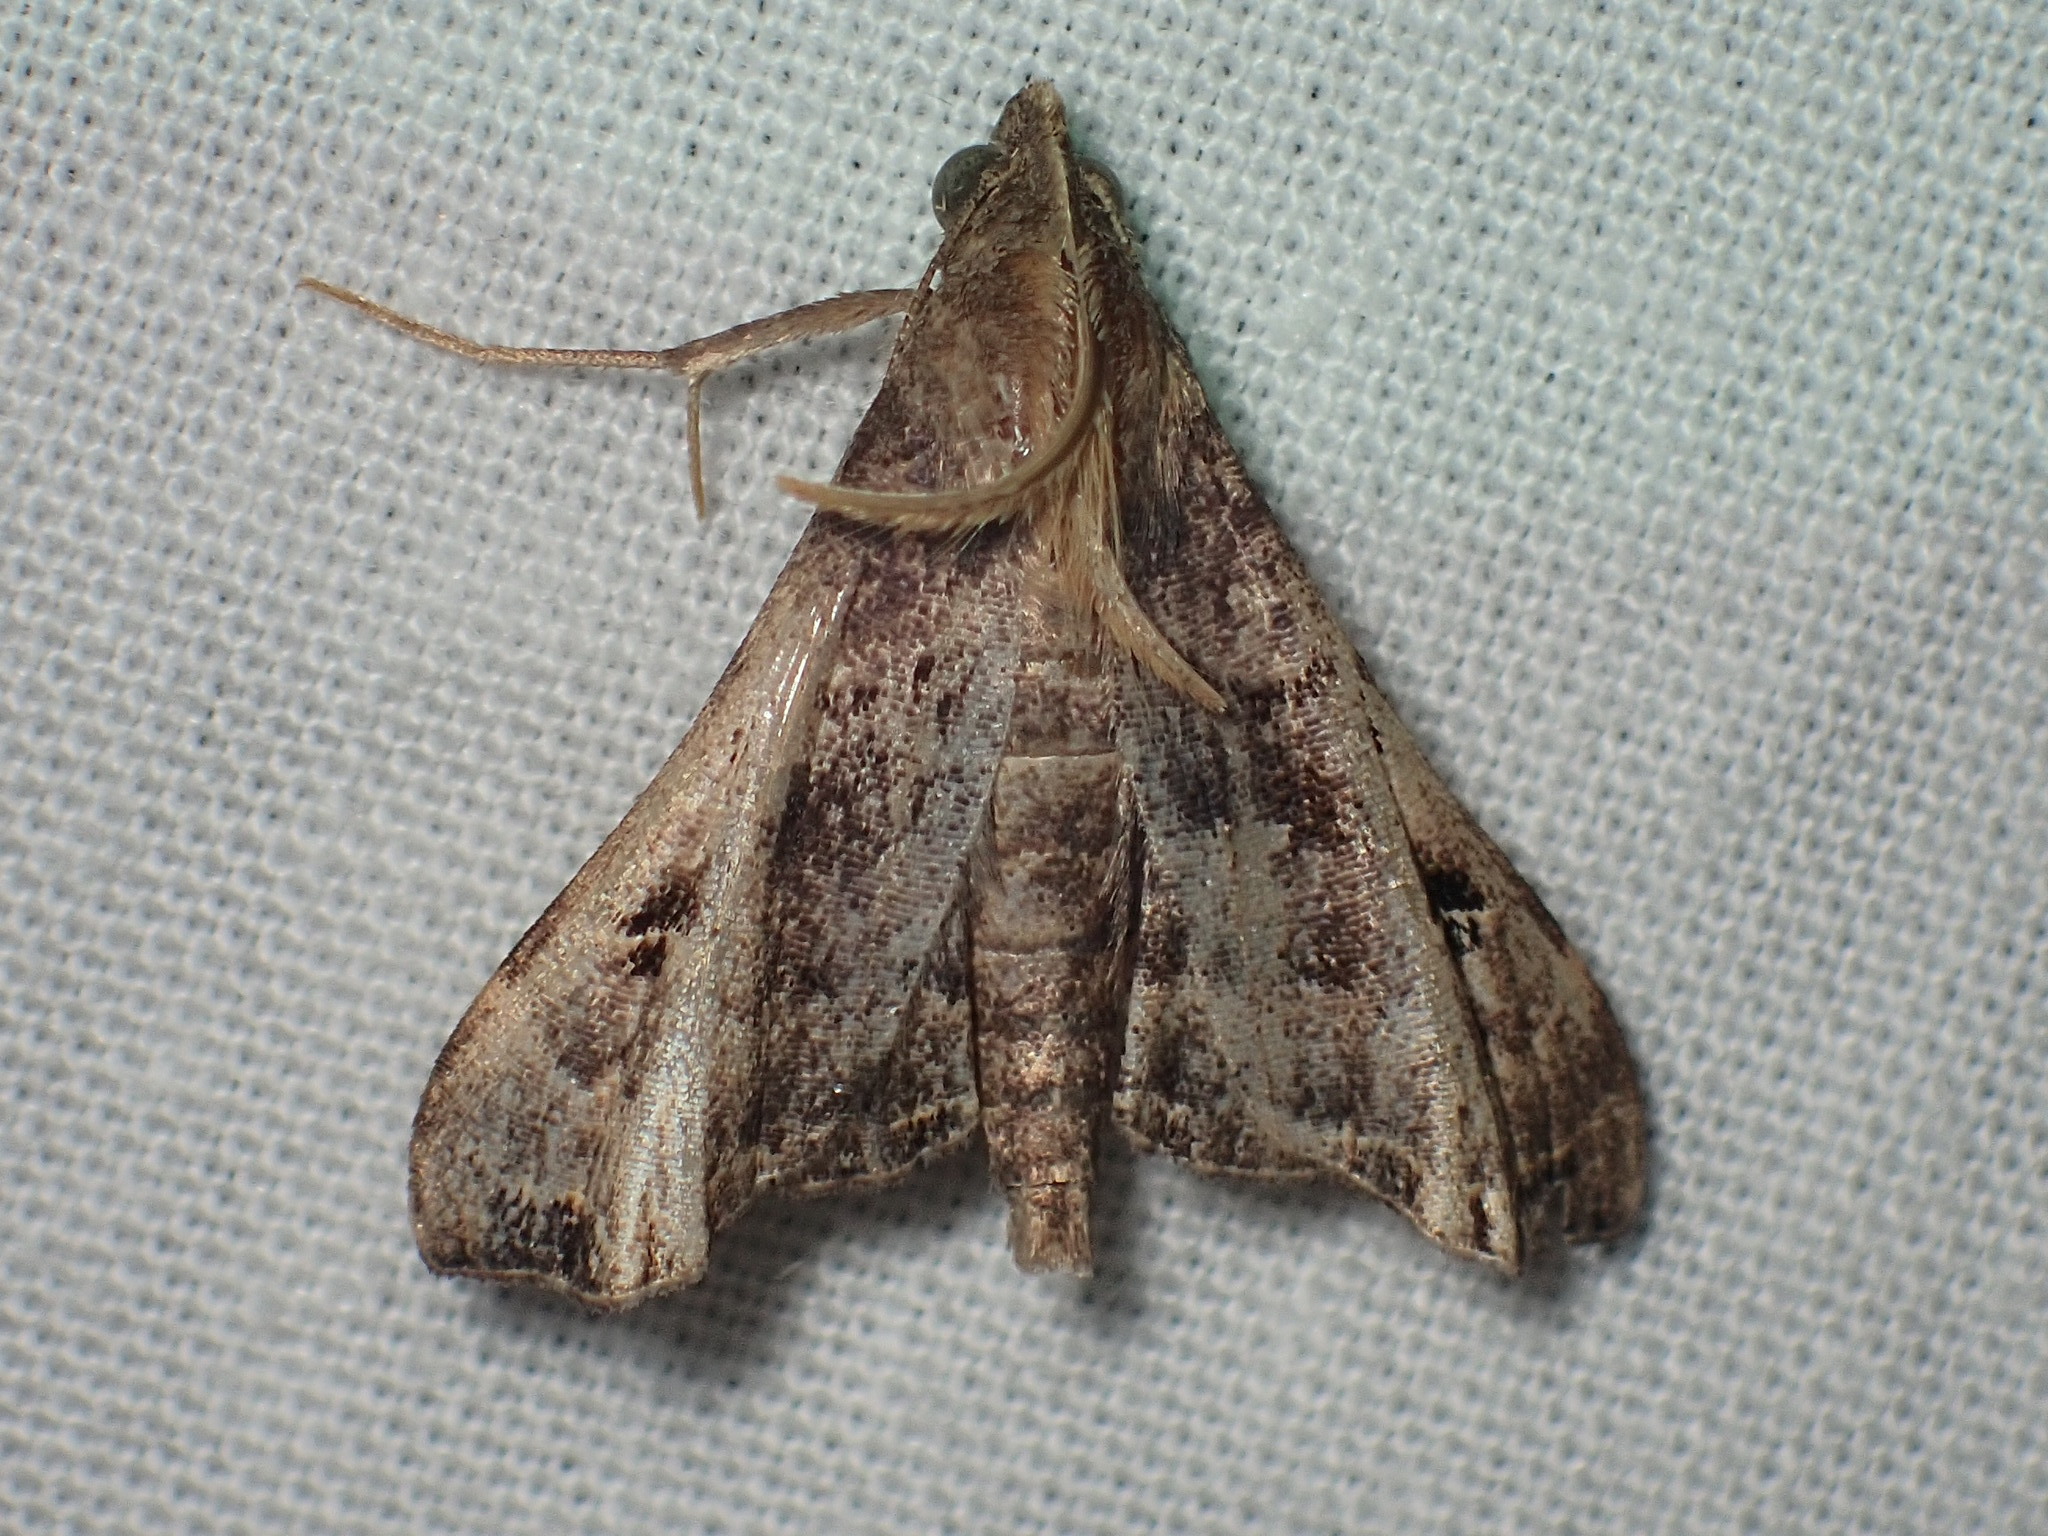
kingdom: Animalia
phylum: Arthropoda
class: Insecta
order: Lepidoptera
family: Erebidae
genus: Palthis
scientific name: Palthis asopialis
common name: Faint-spotted palthis moth
